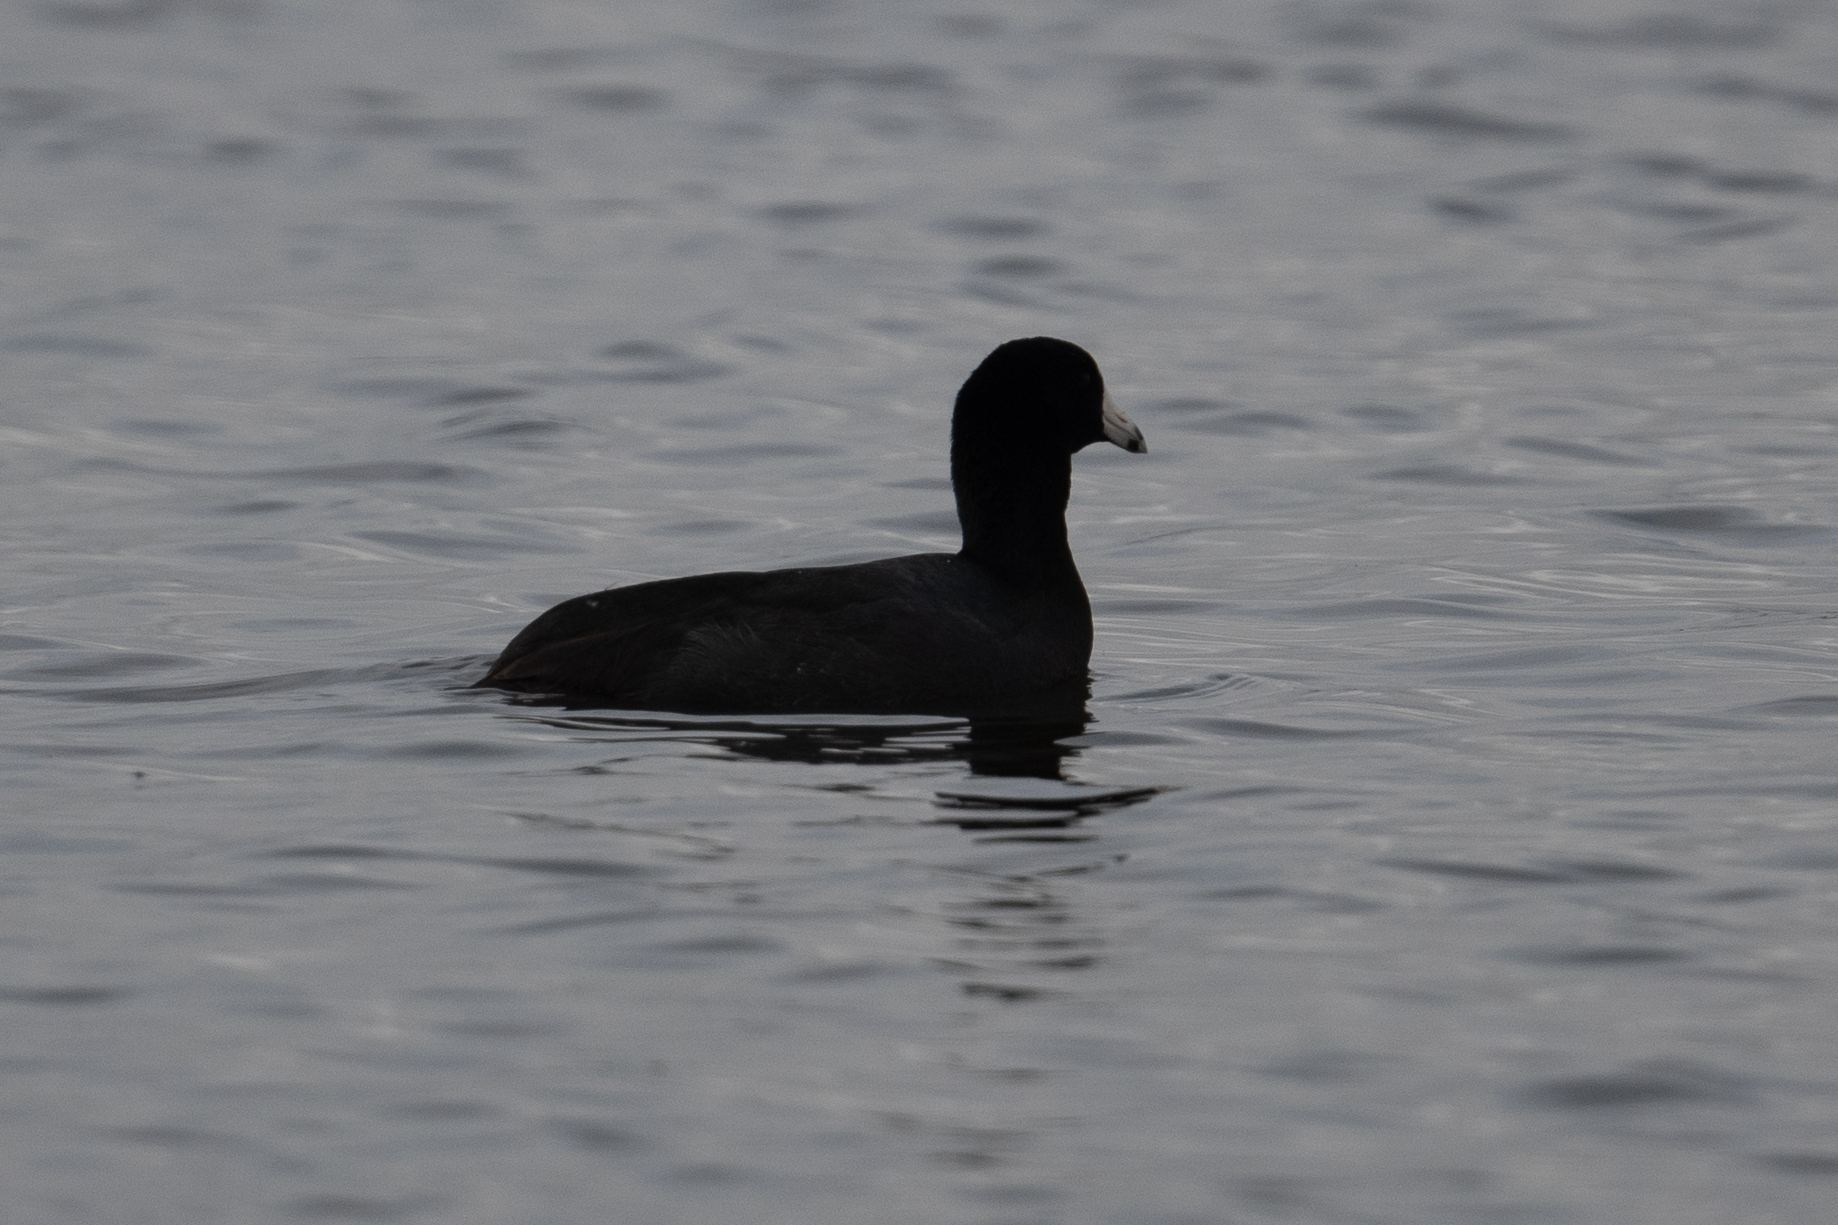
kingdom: Animalia
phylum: Chordata
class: Aves
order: Gruiformes
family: Rallidae
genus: Fulica
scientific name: Fulica americana
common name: American coot
